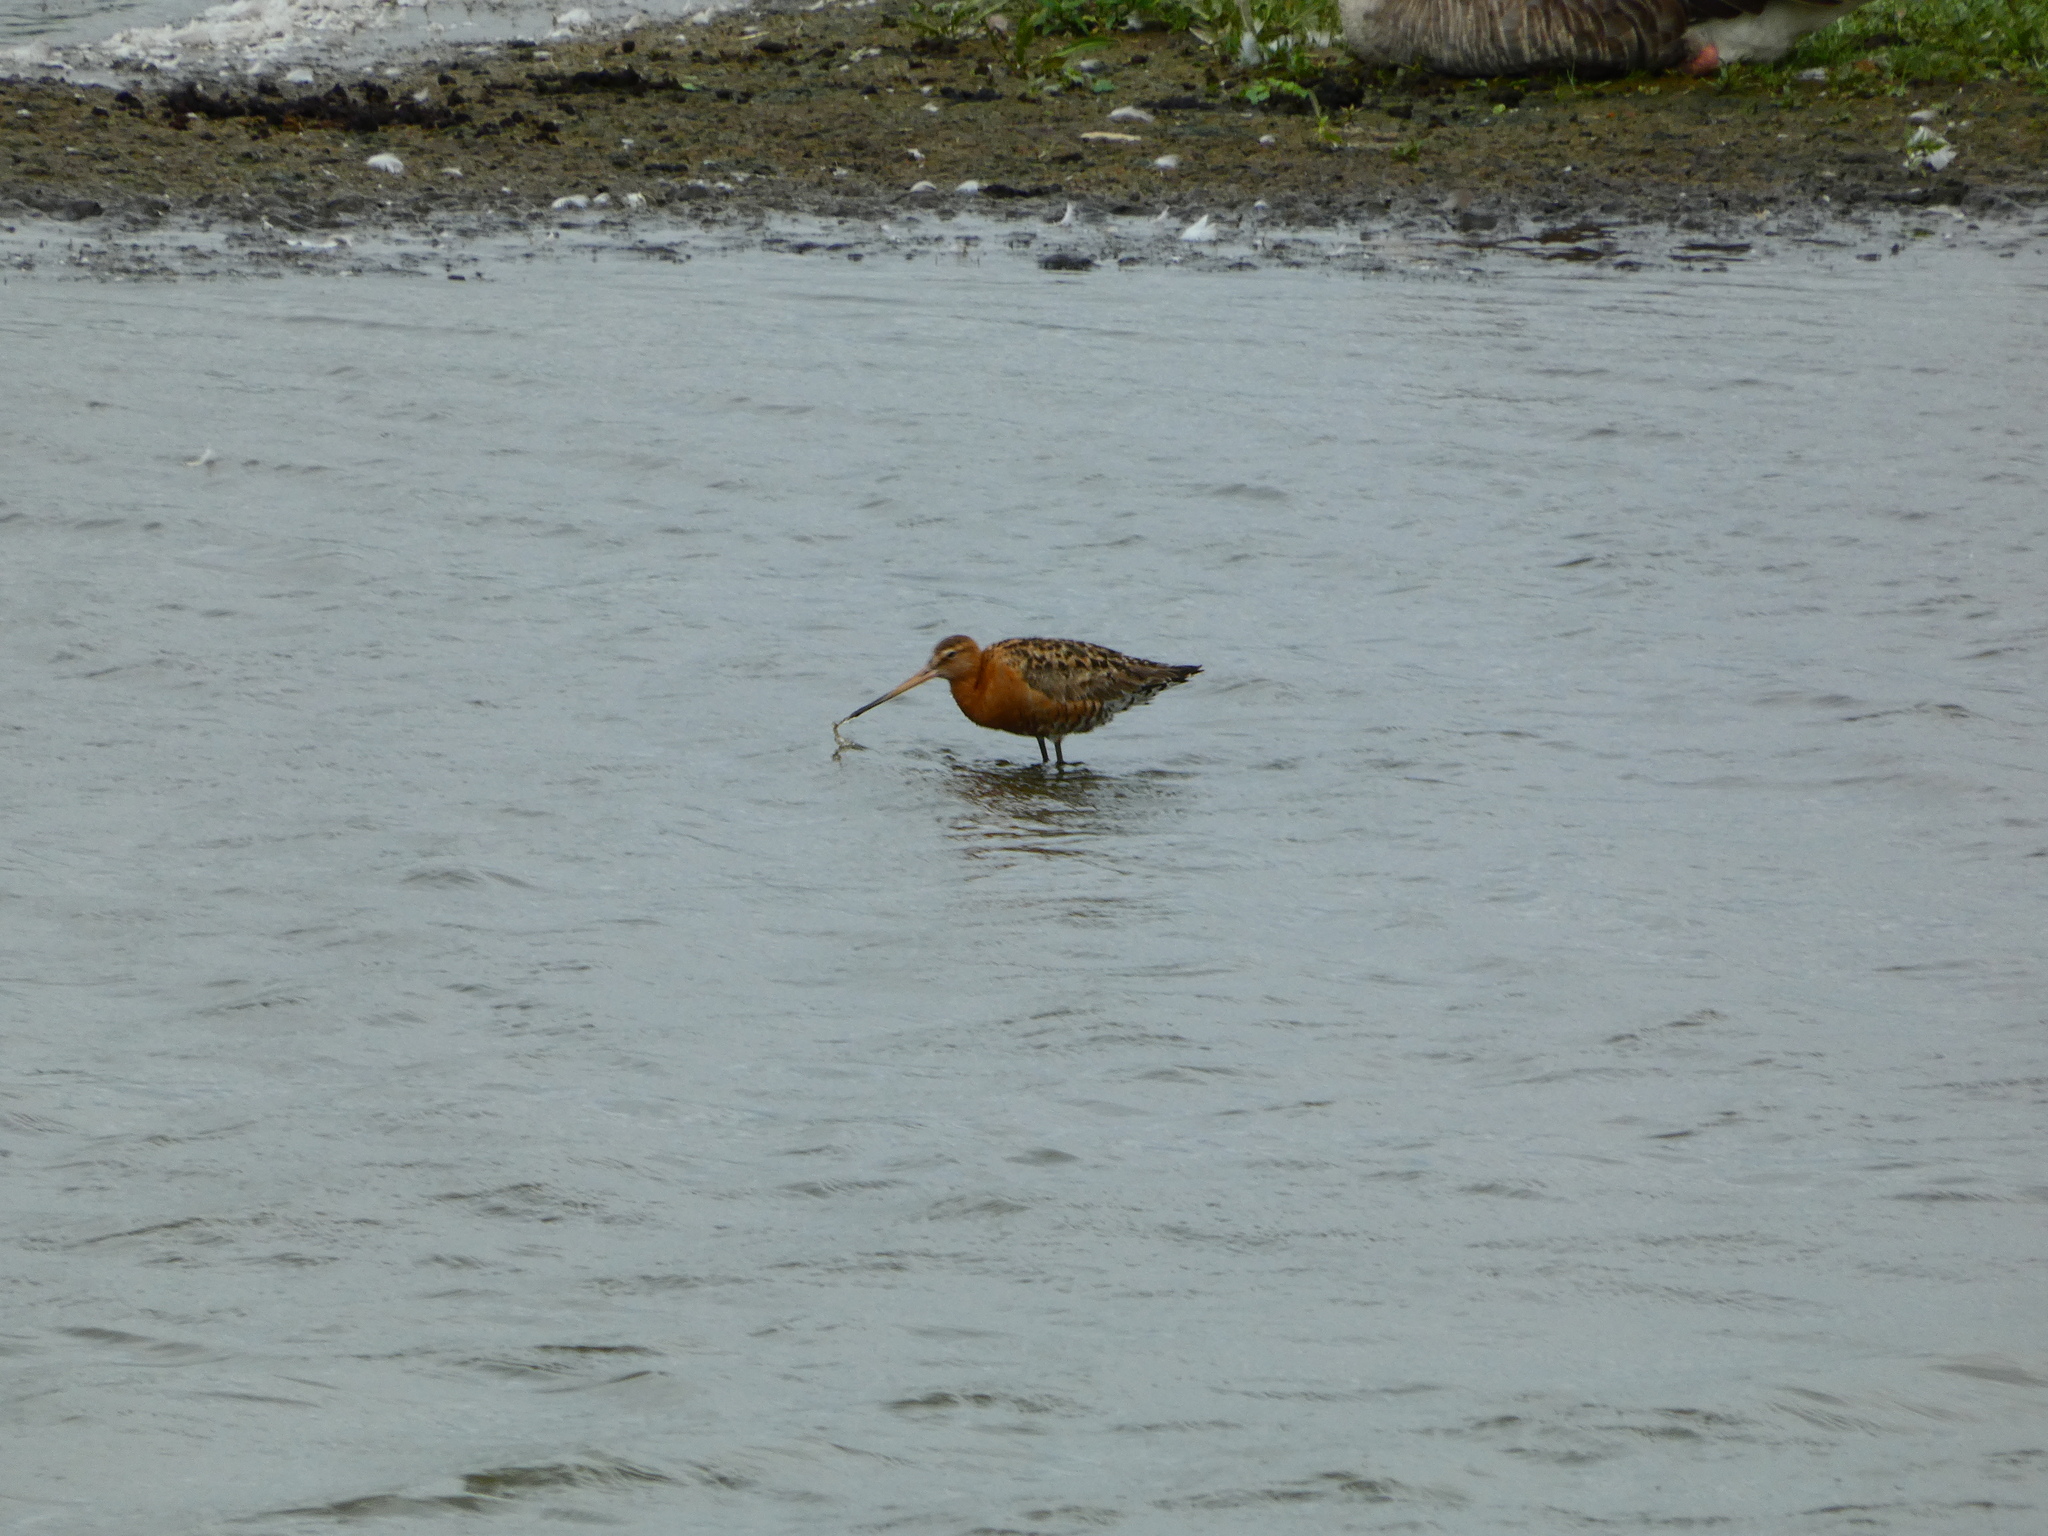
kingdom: Animalia
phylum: Chordata
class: Aves
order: Charadriiformes
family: Scolopacidae
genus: Limosa
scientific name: Limosa limosa
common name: Black-tailed godwit
